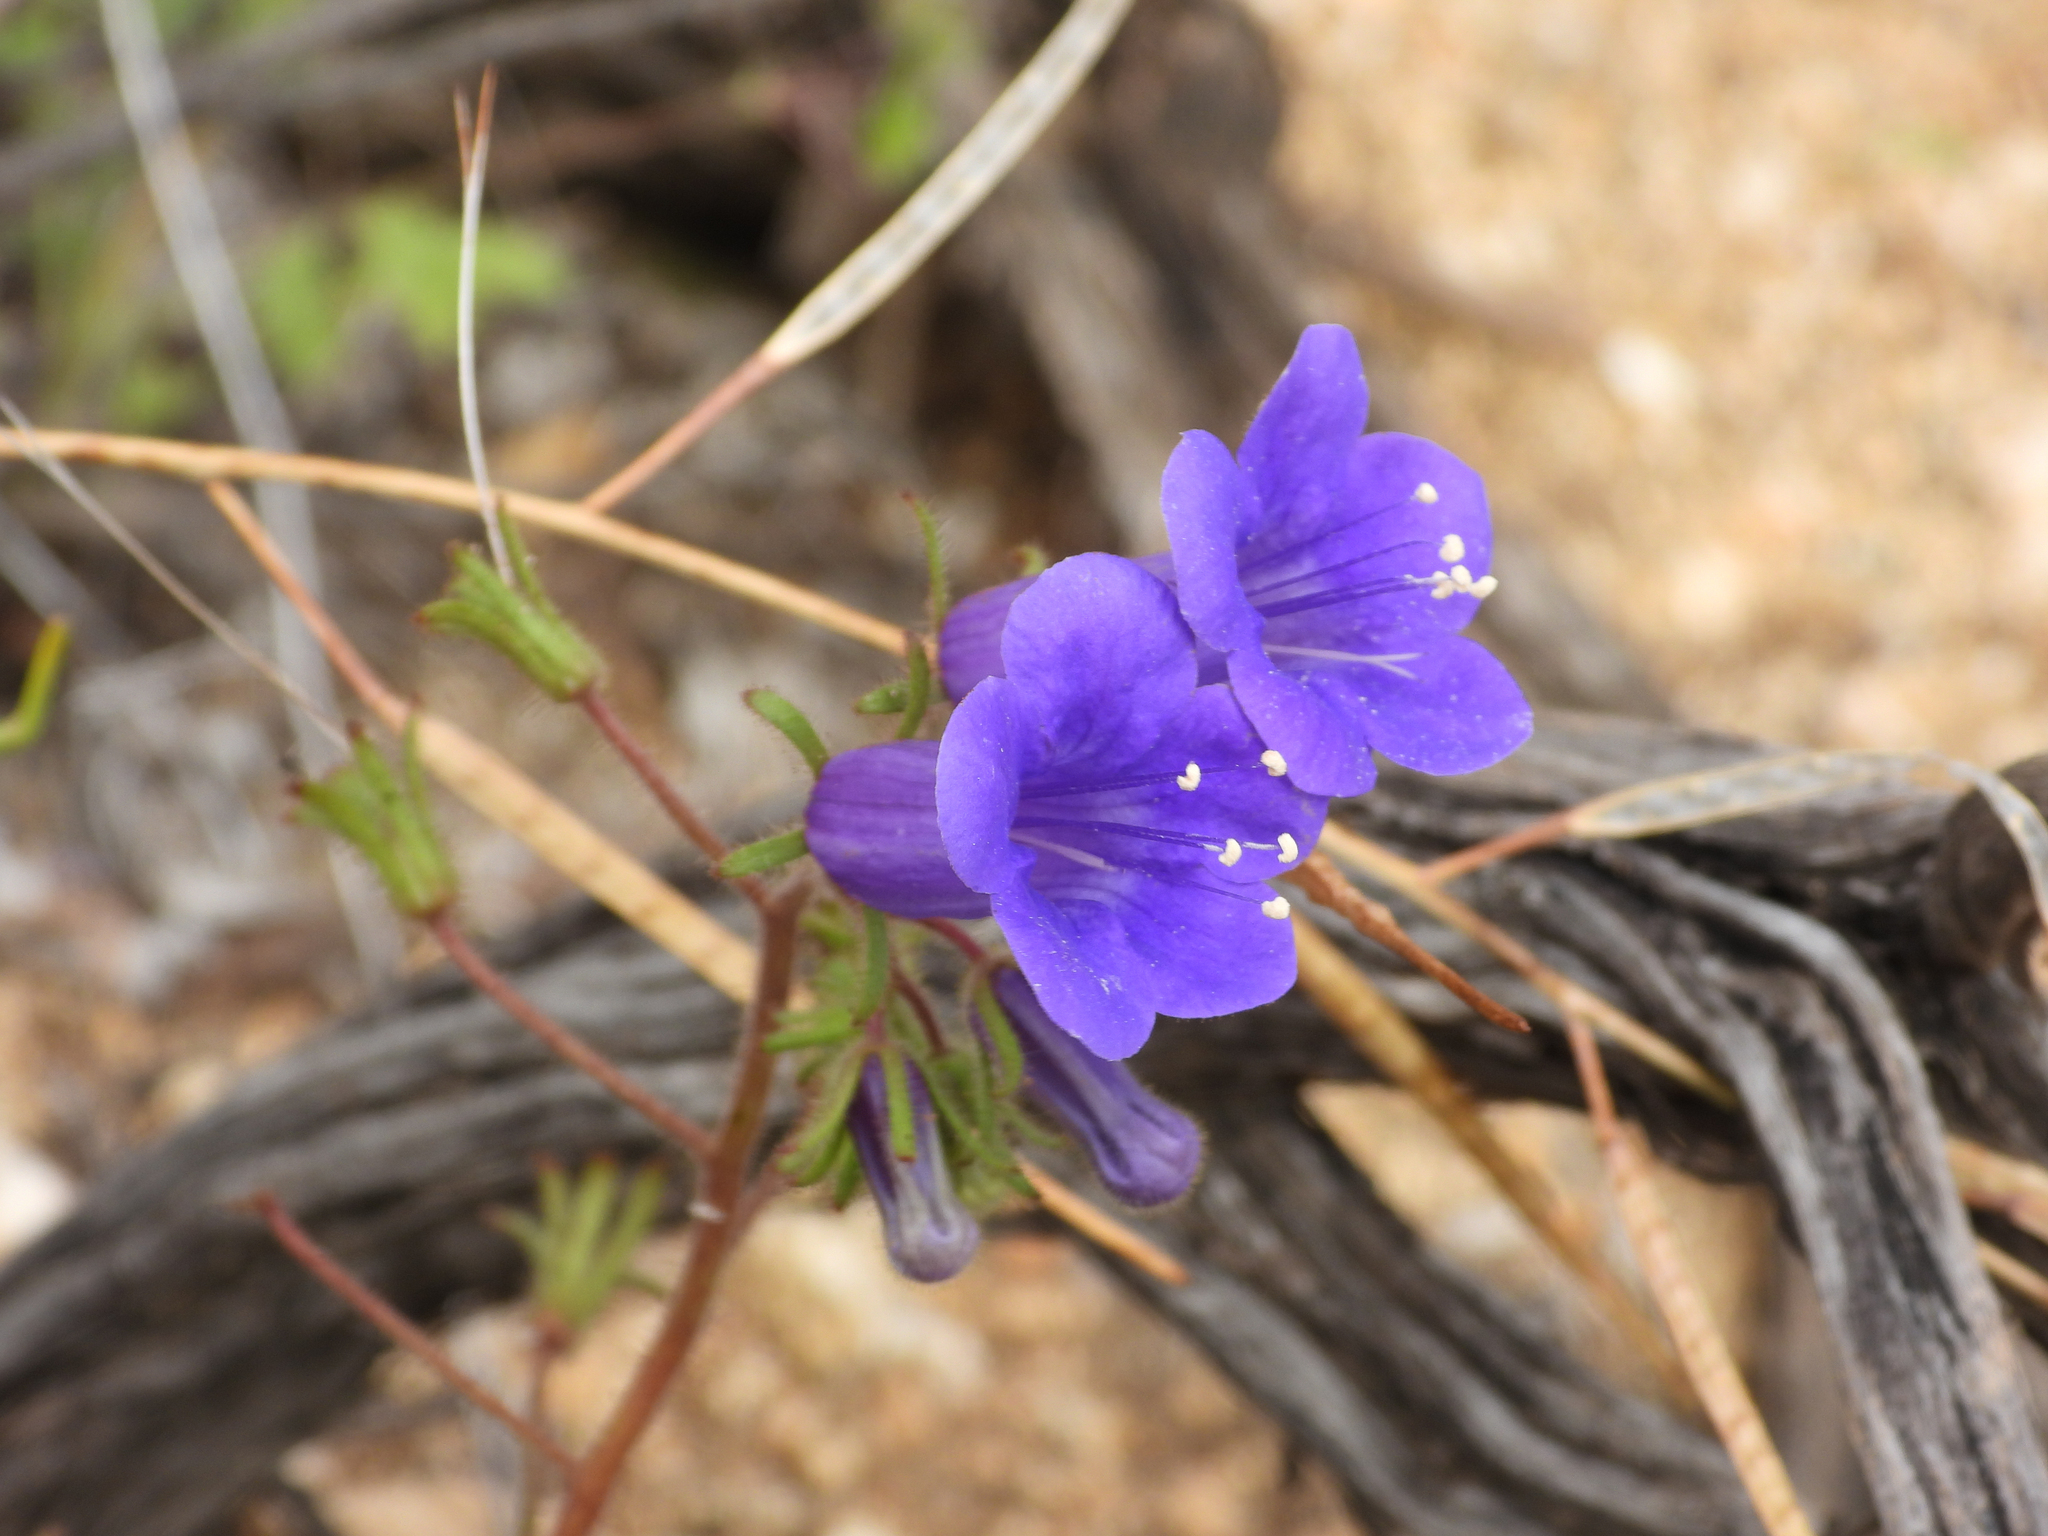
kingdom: Plantae
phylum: Tracheophyta
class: Magnoliopsida
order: Boraginales
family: Hydrophyllaceae
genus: Phacelia
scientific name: Phacelia minor
